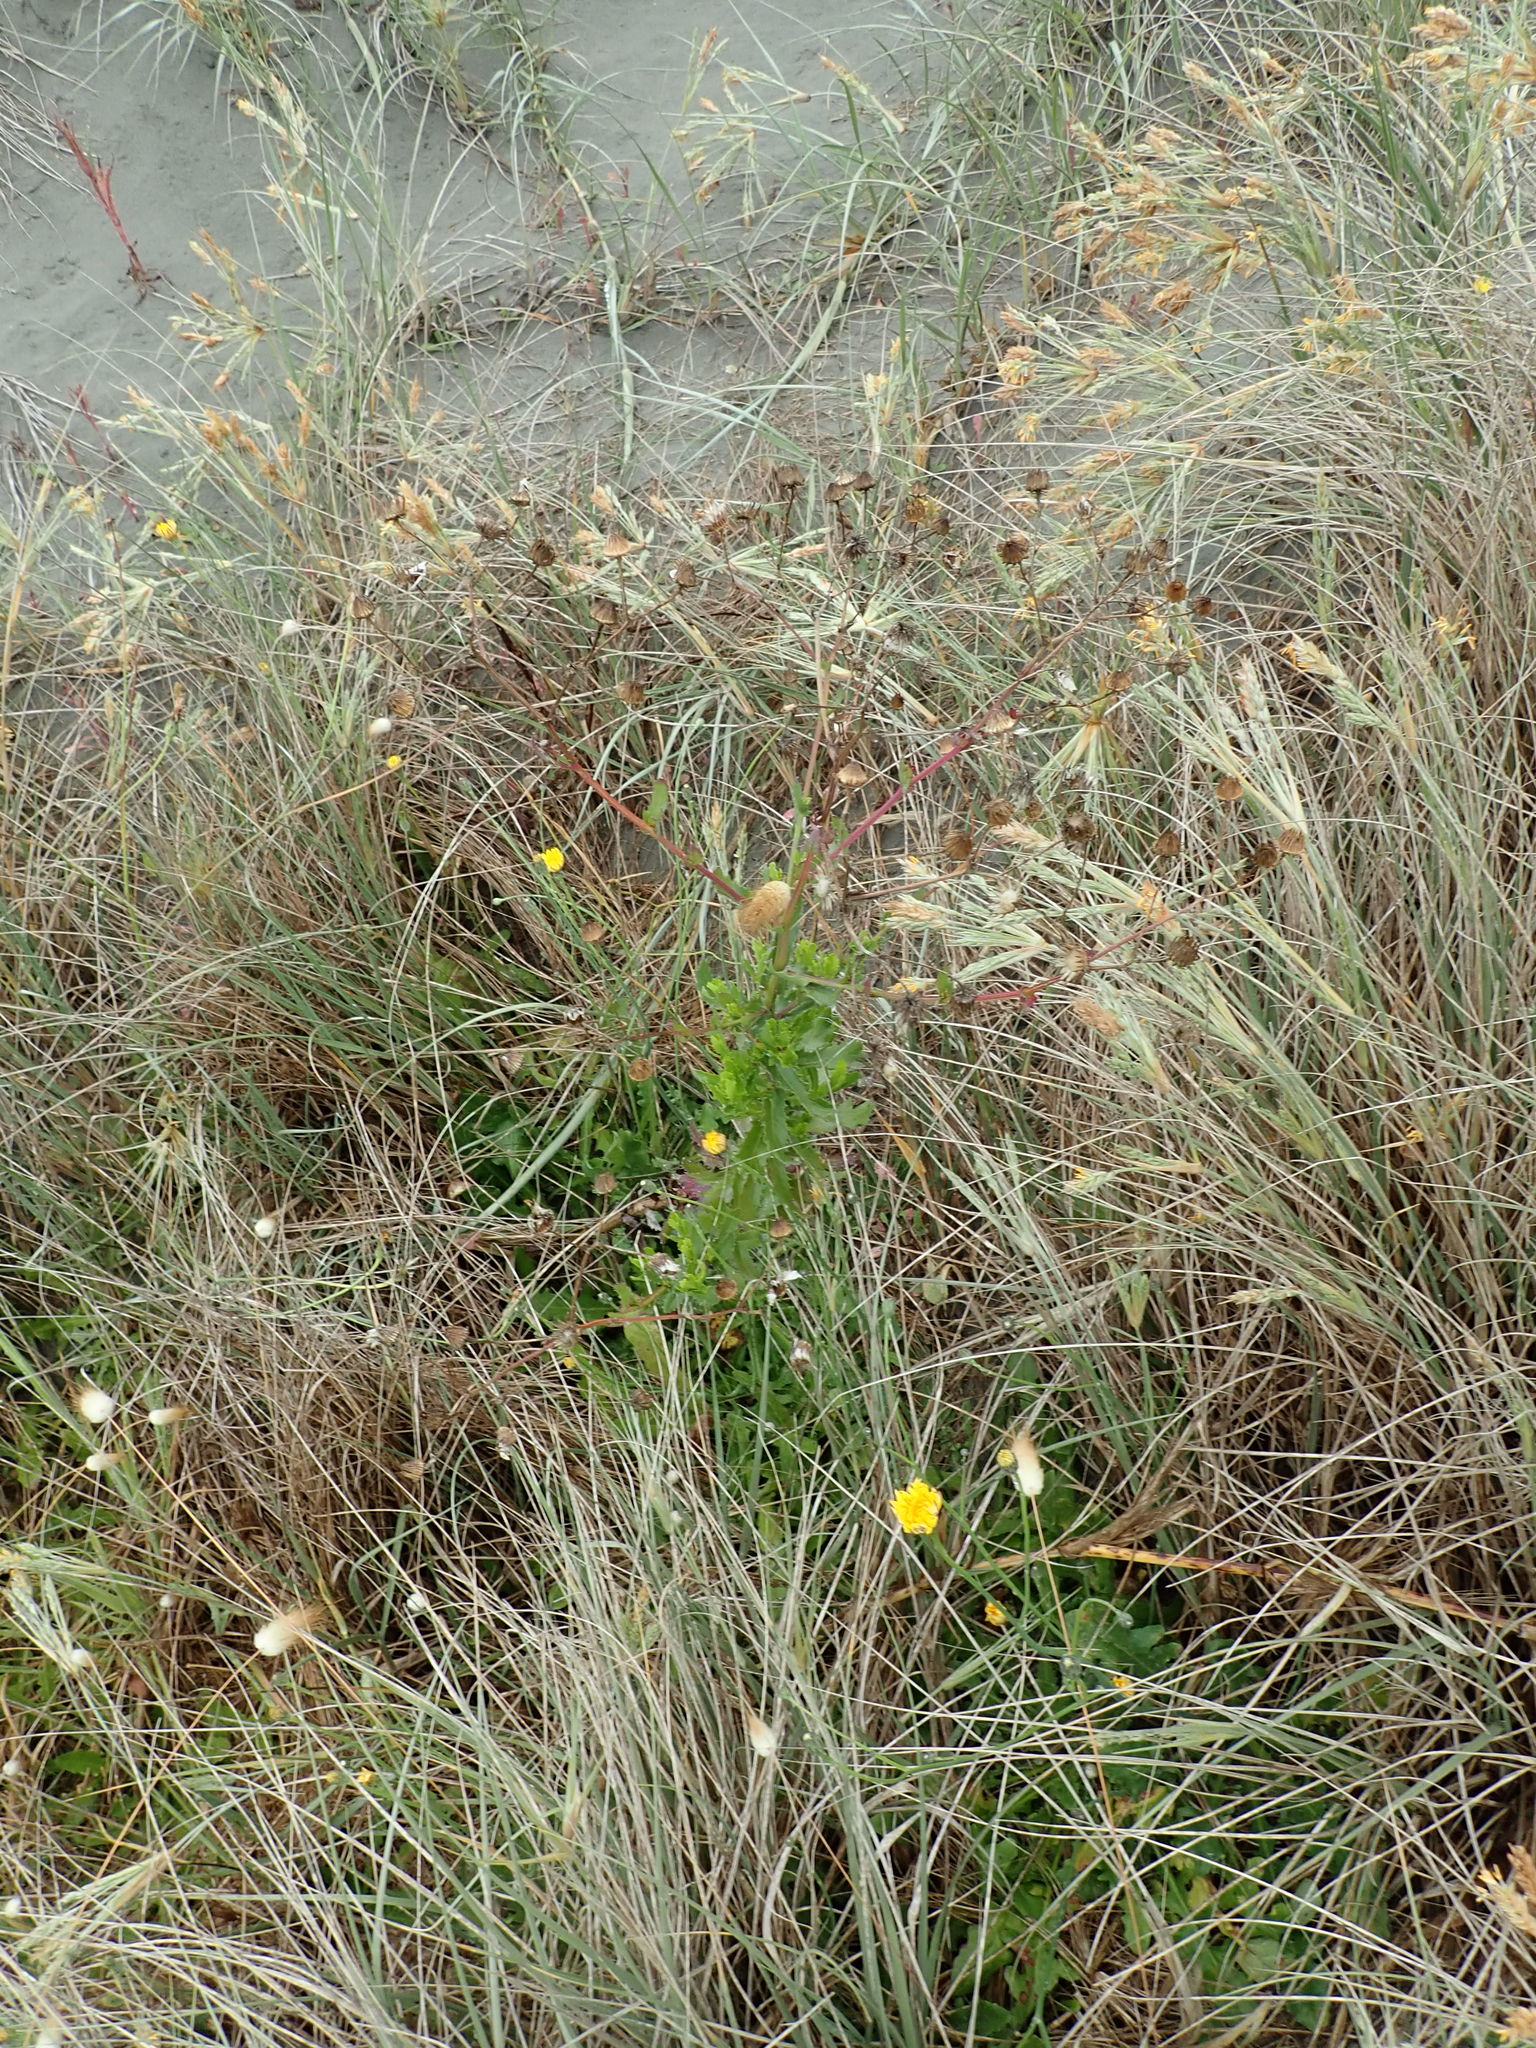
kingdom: Plantae
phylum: Tracheophyta
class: Magnoliopsida
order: Asterales
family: Asteraceae
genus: Senecio
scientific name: Senecio glastifolius
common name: Woad-leaved ragwort
